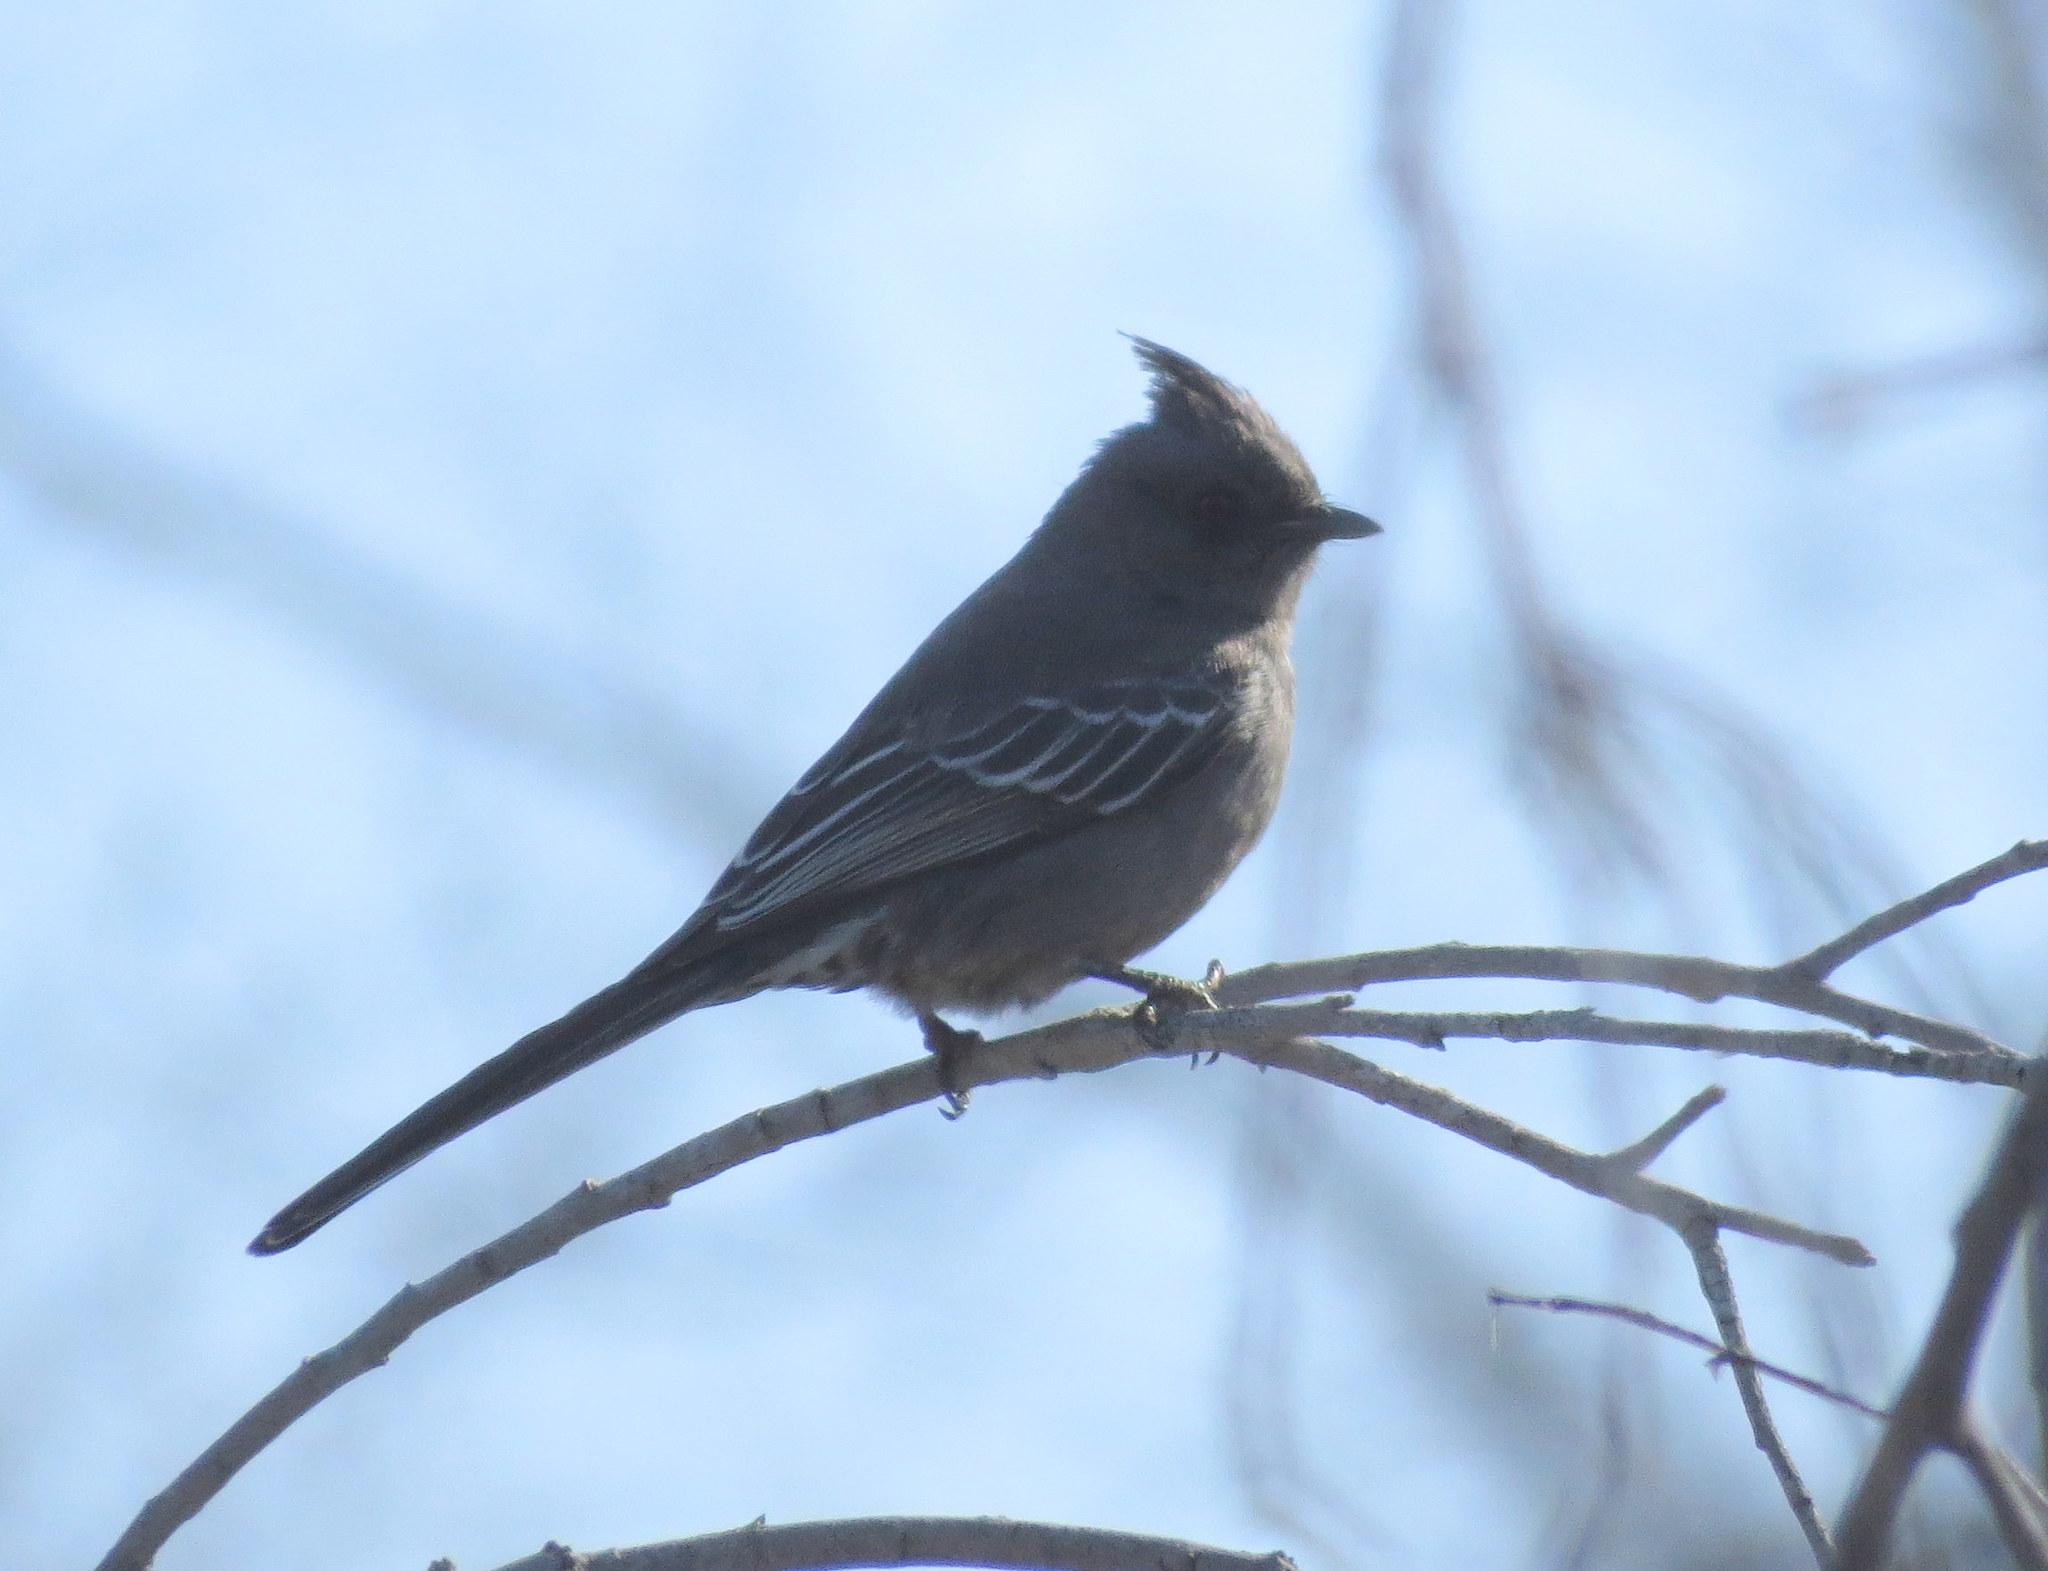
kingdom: Animalia
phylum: Chordata
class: Aves
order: Passeriformes
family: Ptilogonatidae
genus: Phainopepla
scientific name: Phainopepla nitens
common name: Phainopepla
